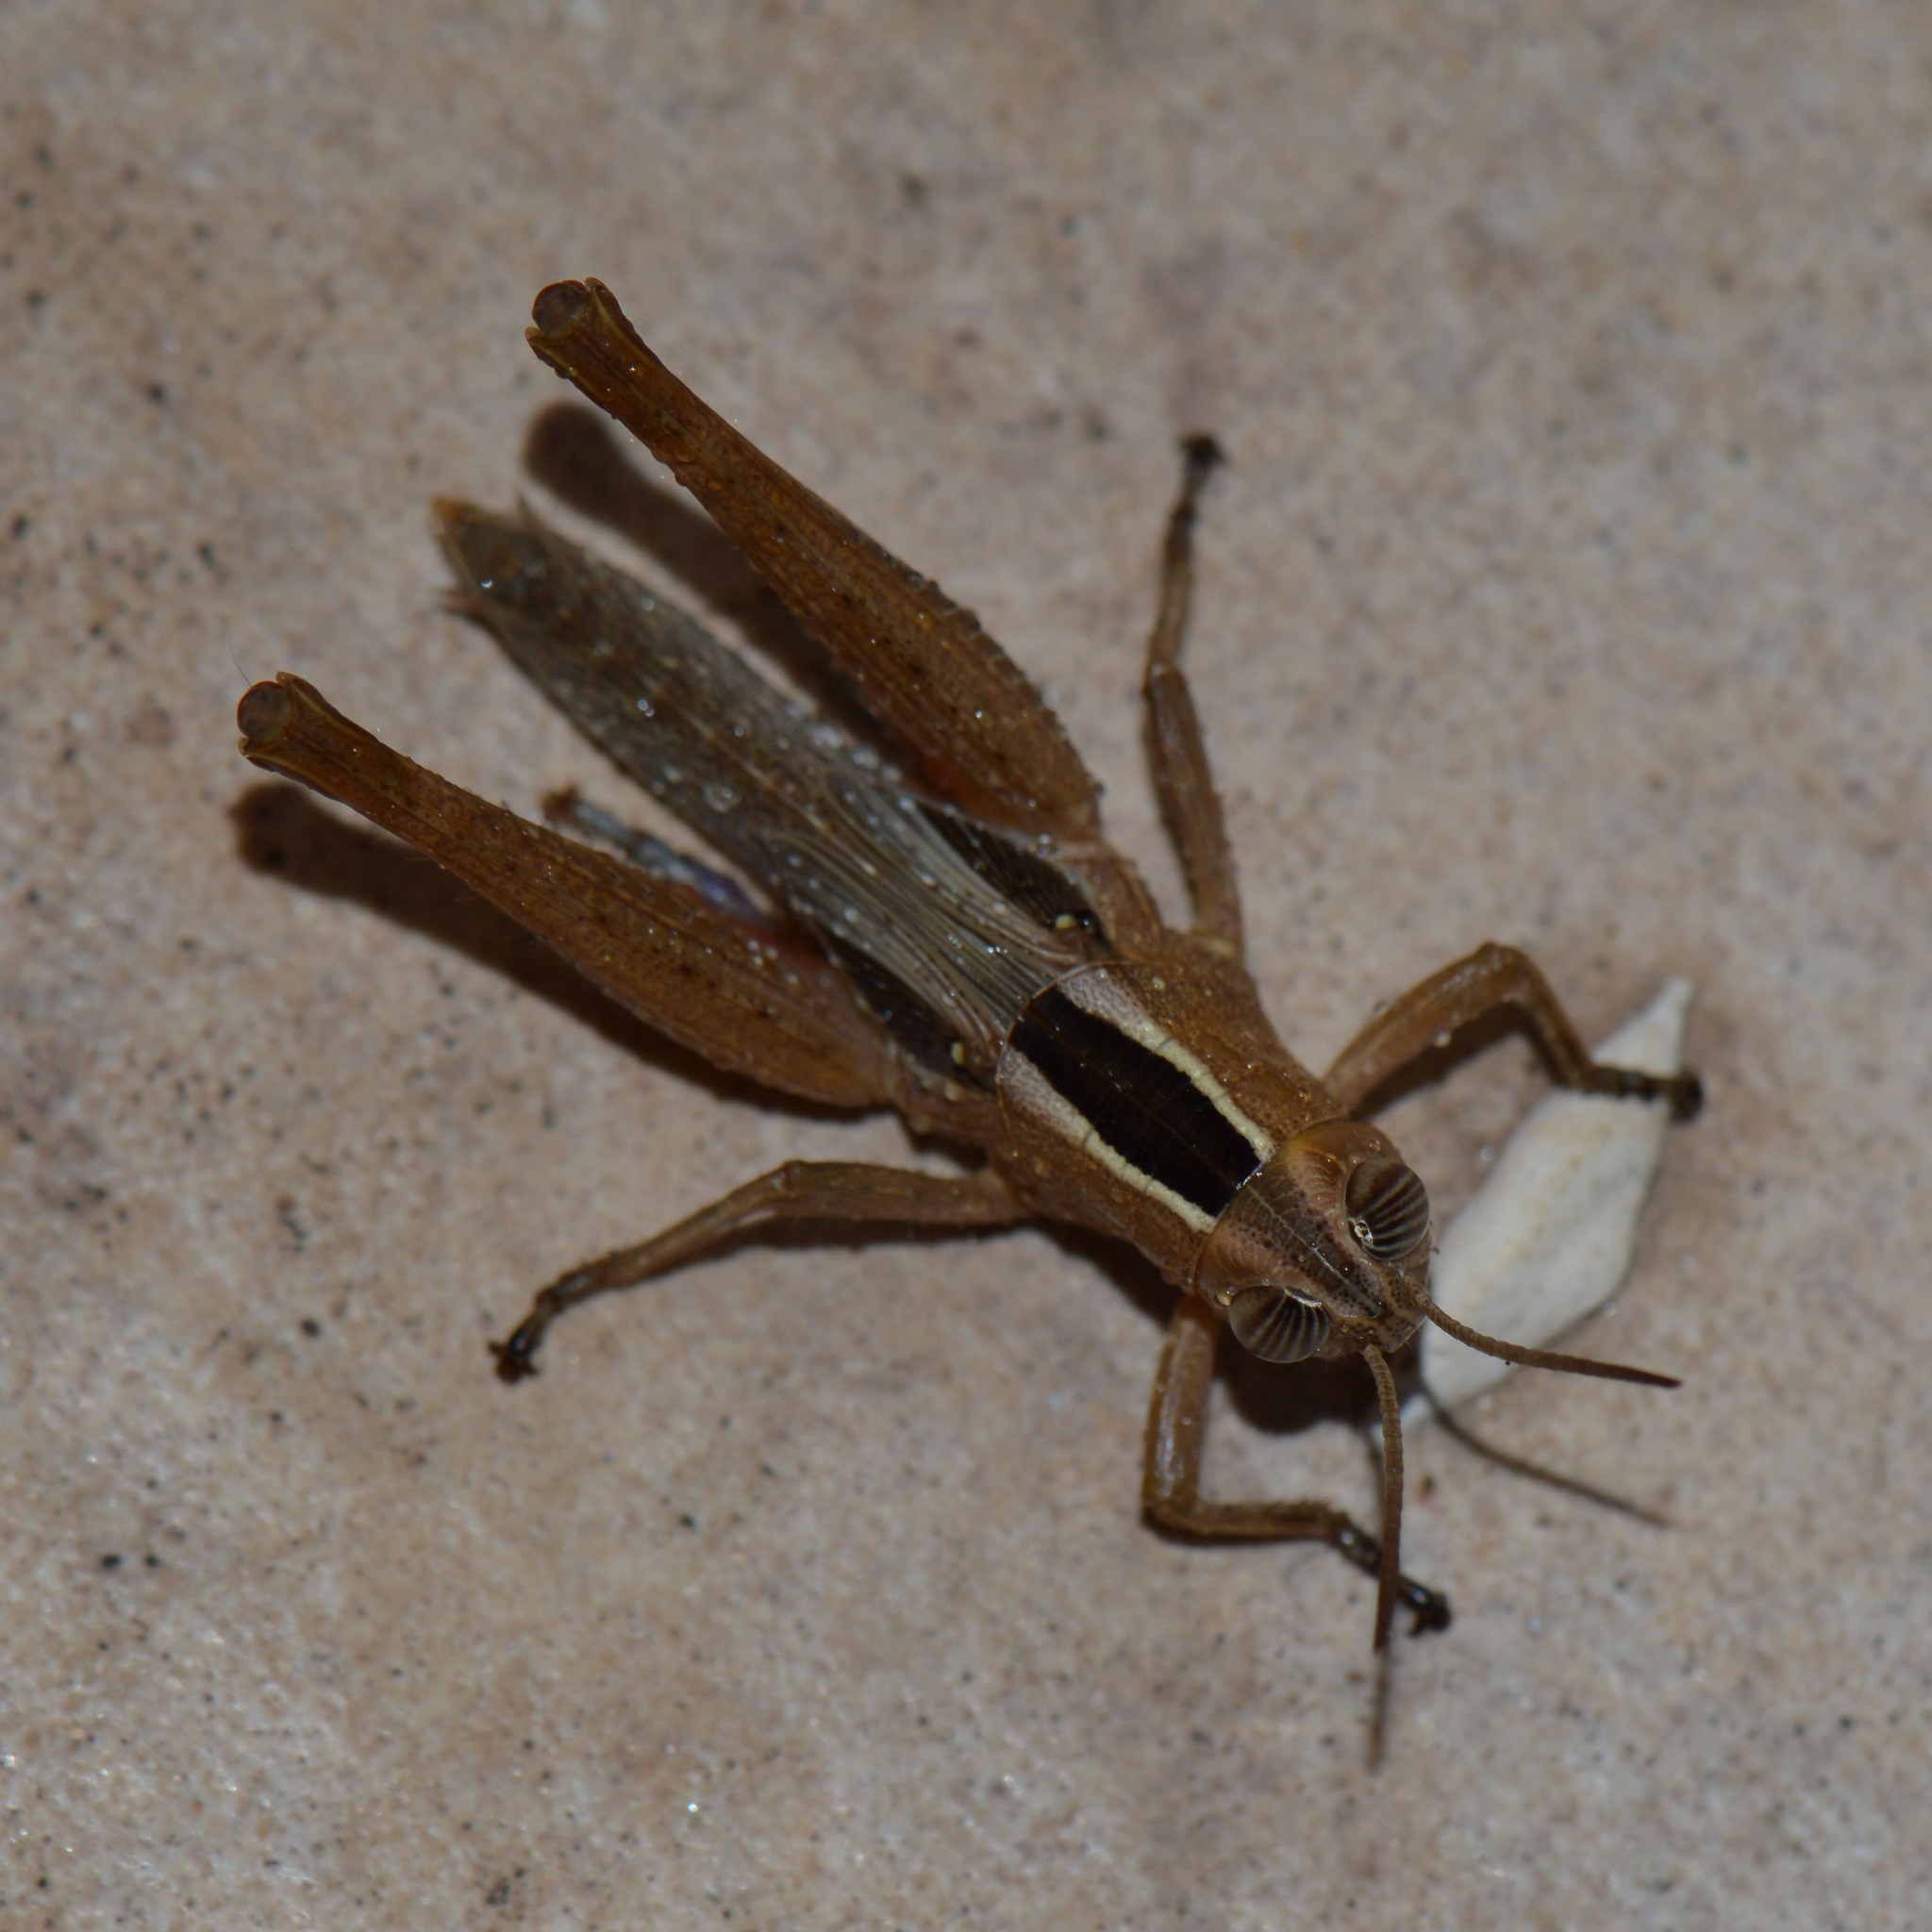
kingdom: Animalia
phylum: Arthropoda
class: Insecta
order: Orthoptera
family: Acrididae
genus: Eyprepocnemis
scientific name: Eyprepocnemis plorans
